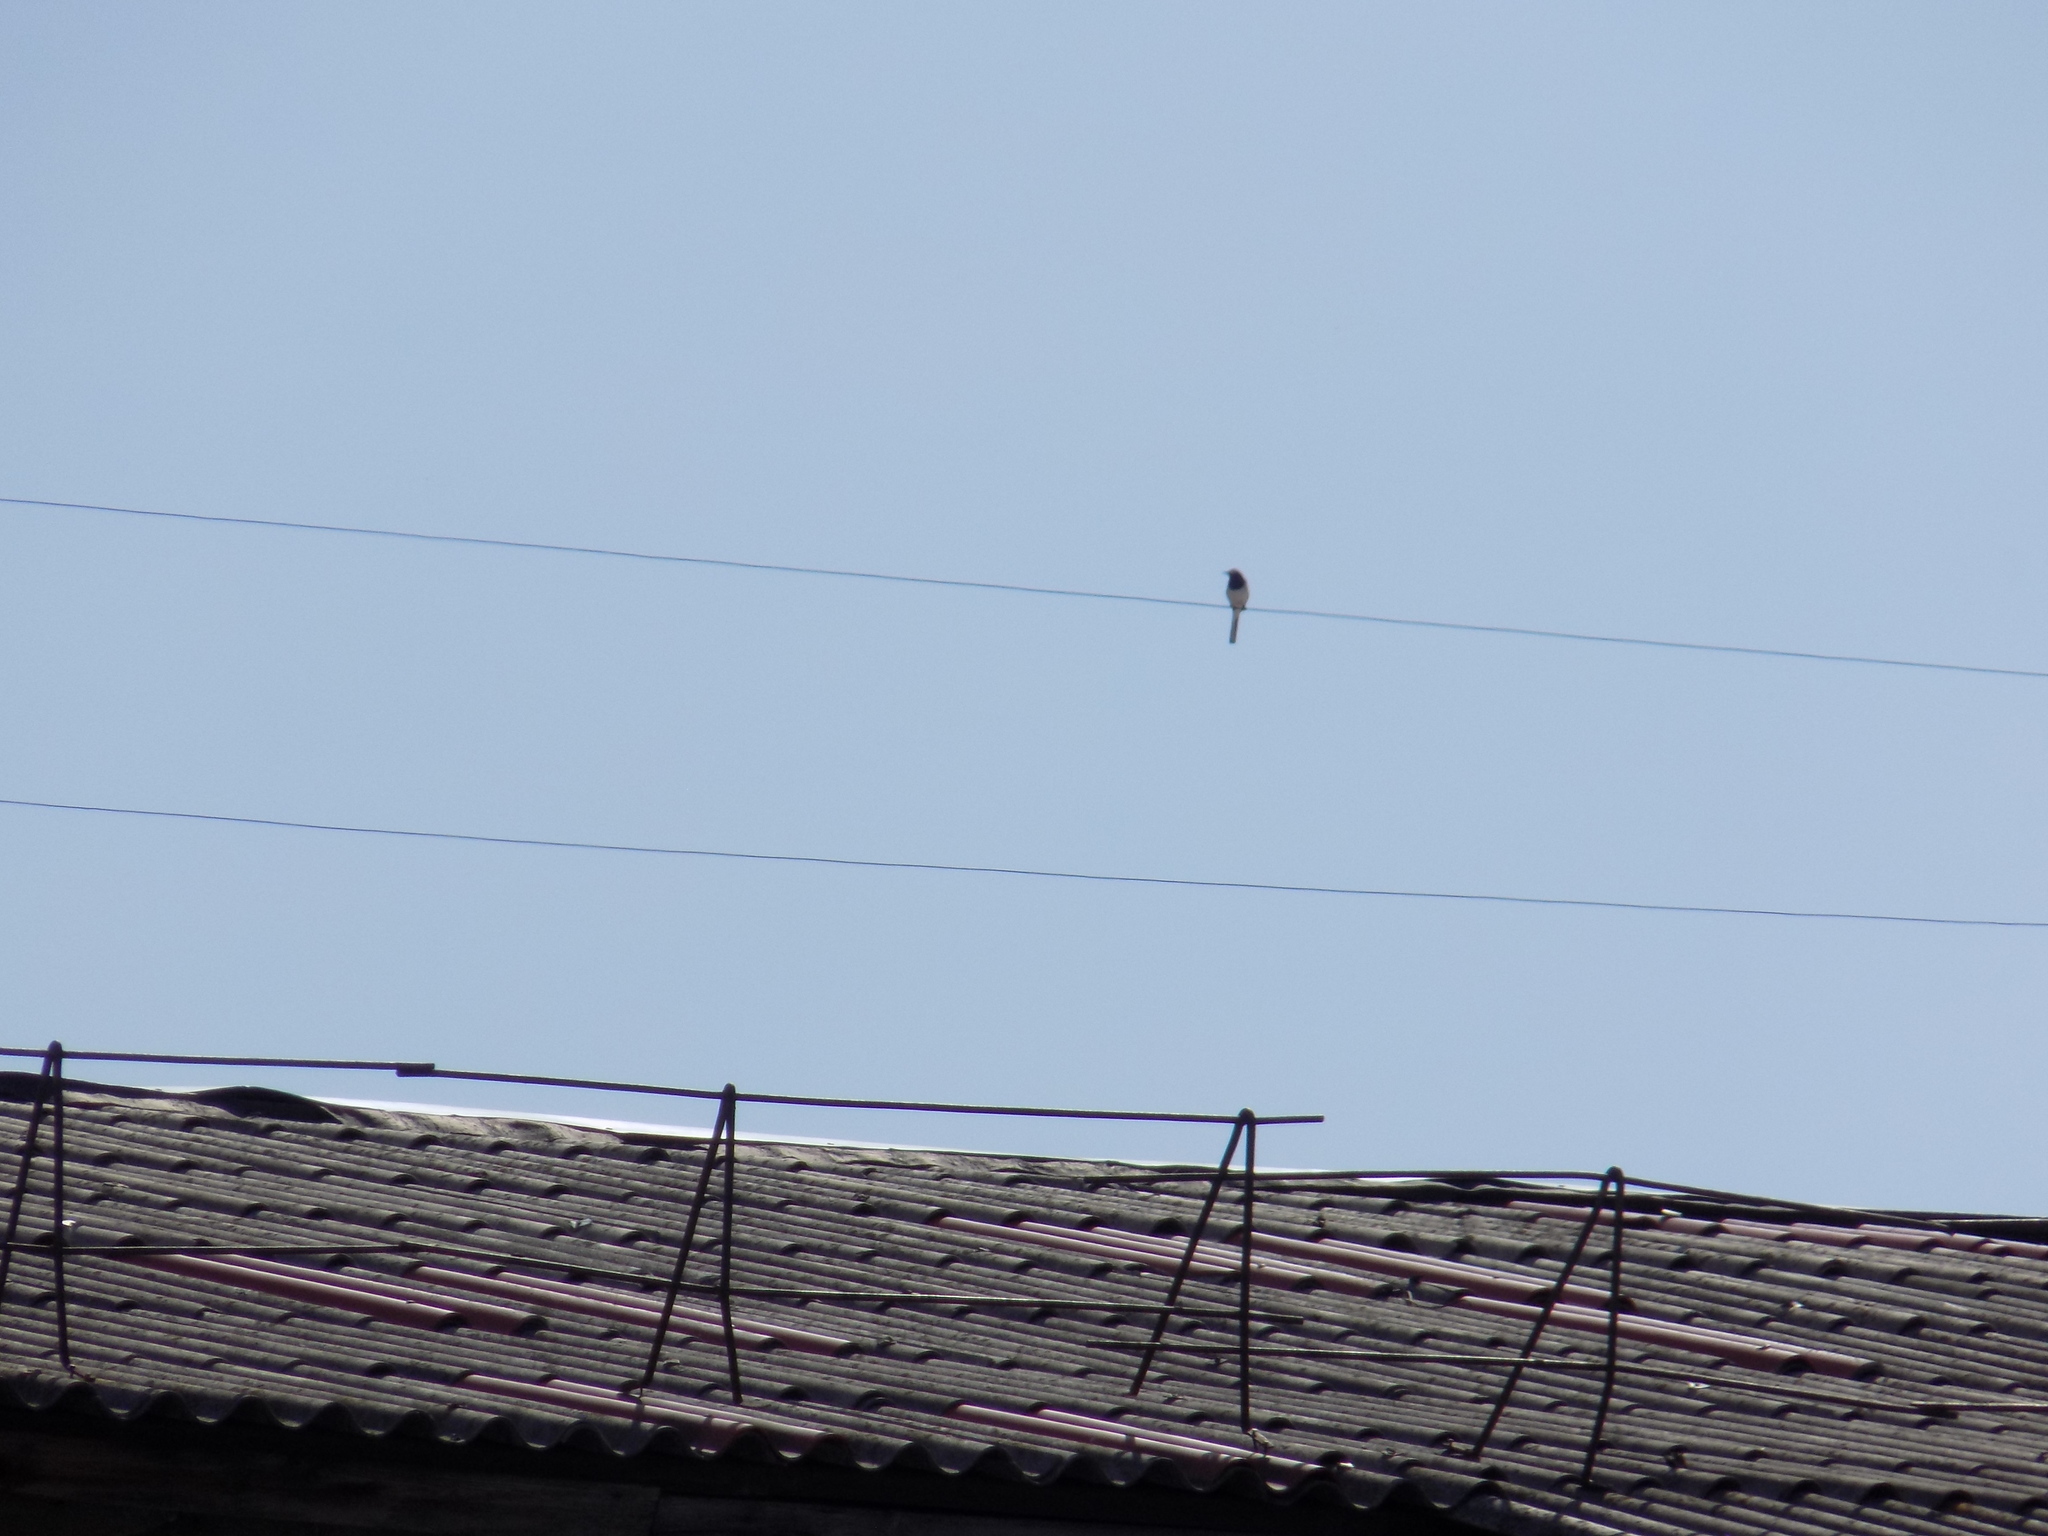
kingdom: Animalia
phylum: Chordata
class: Aves
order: Passeriformes
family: Motacillidae
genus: Motacilla
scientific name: Motacilla alba
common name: White wagtail
